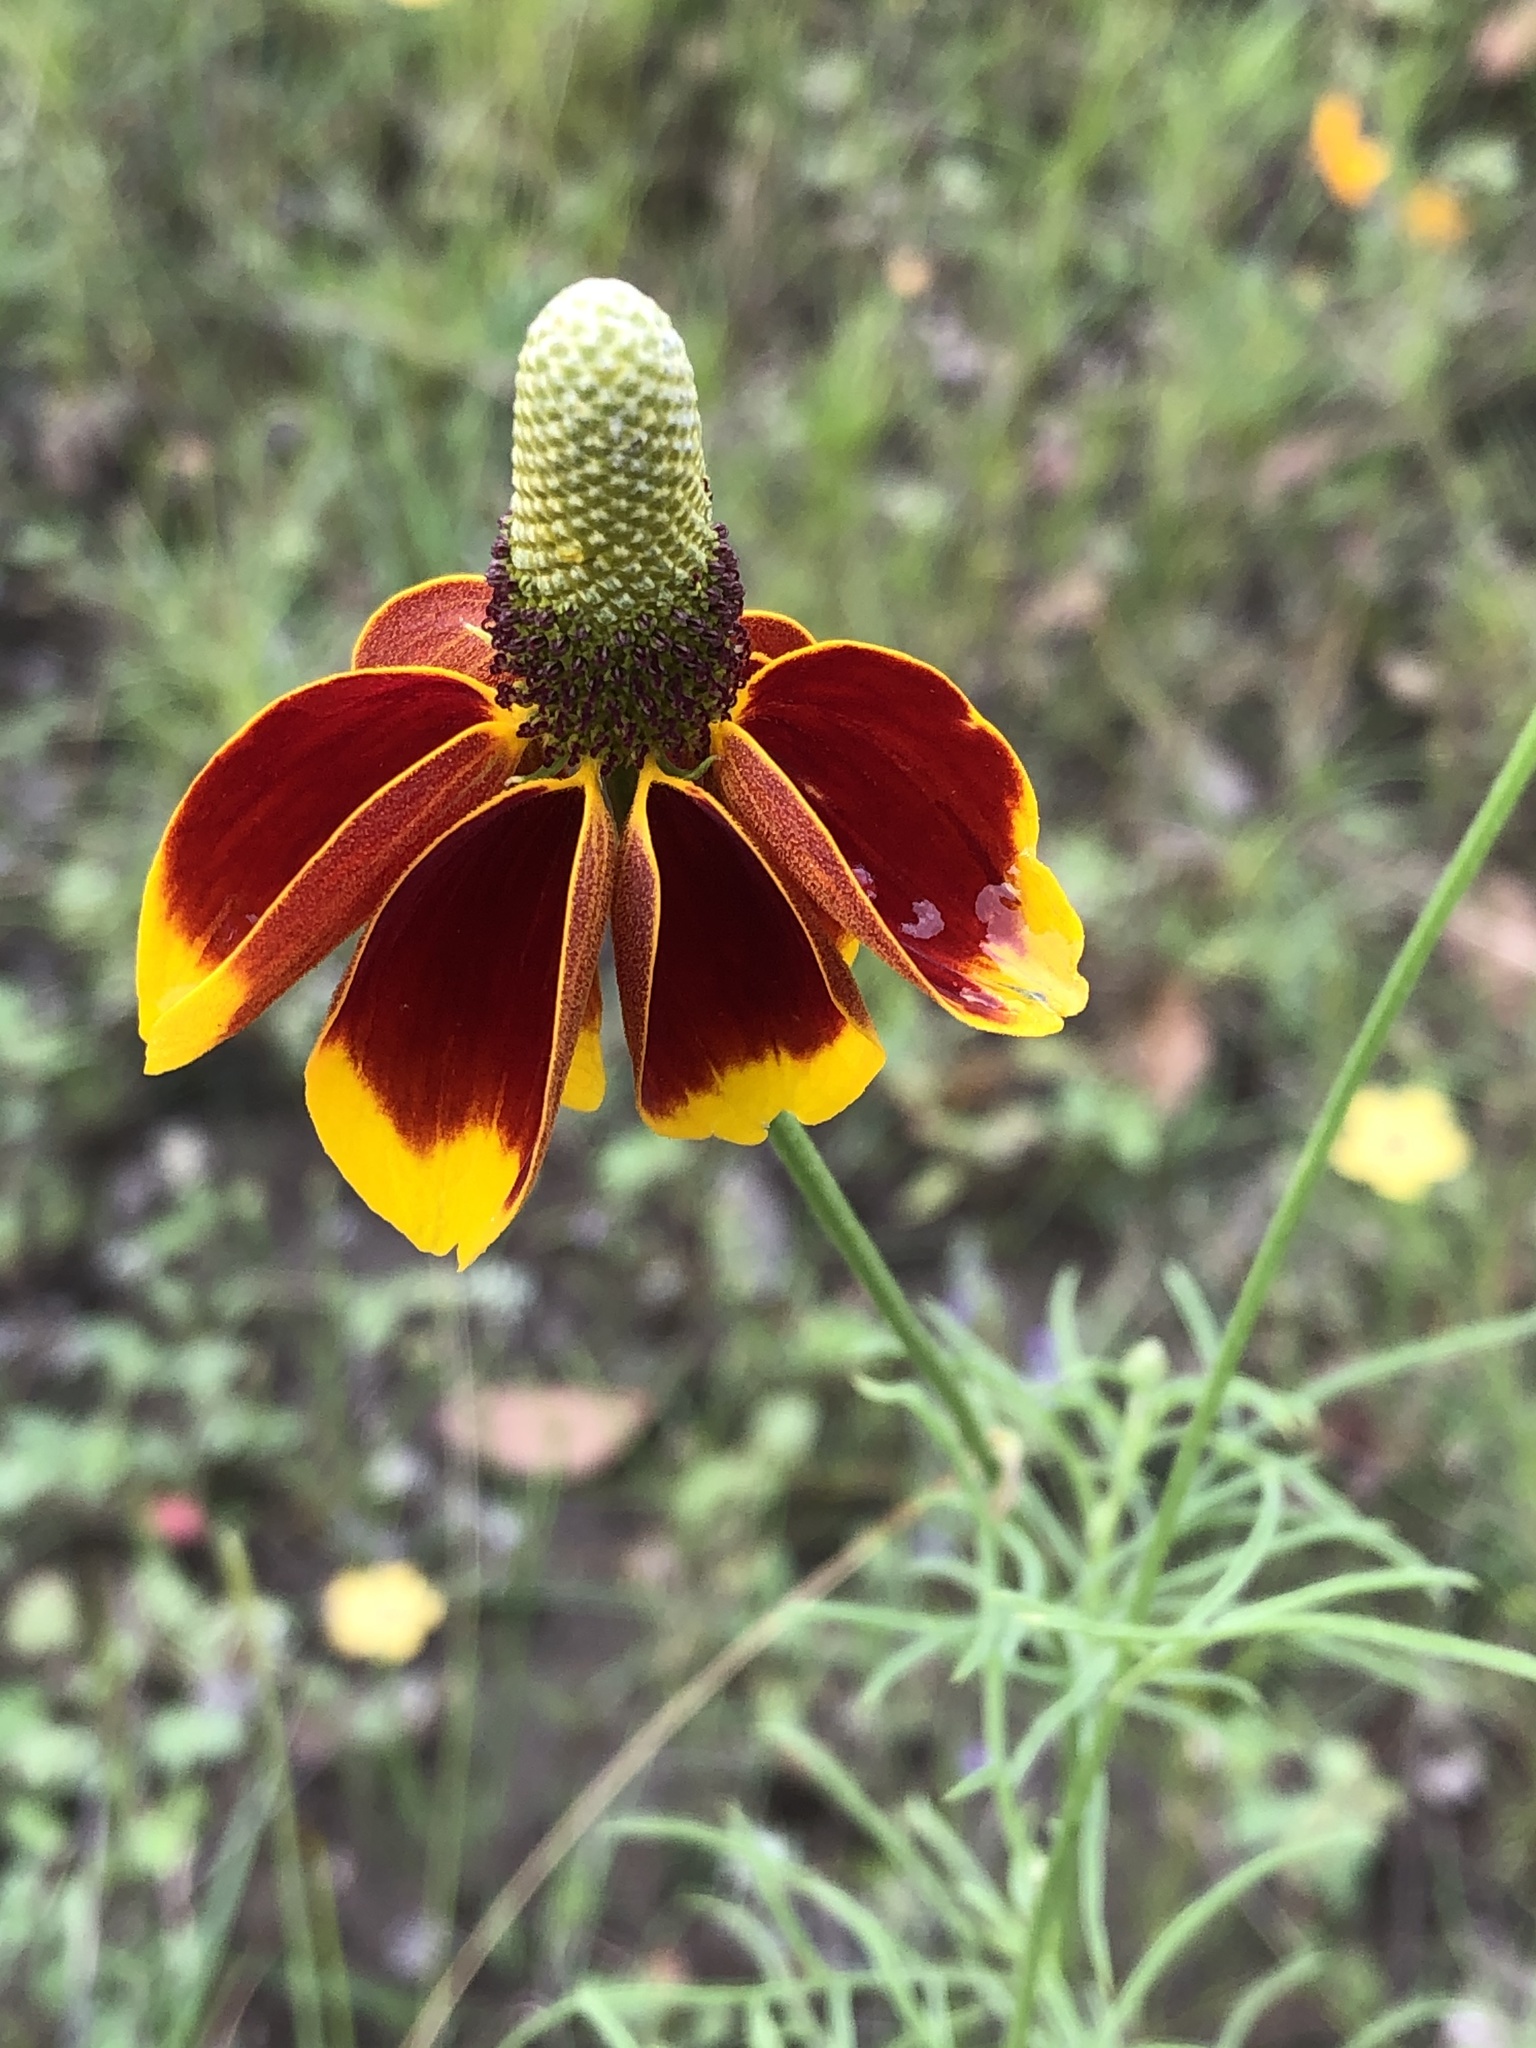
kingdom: Plantae
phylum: Tracheophyta
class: Magnoliopsida
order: Asterales
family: Asteraceae
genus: Ratibida
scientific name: Ratibida columnifera
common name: Prairie coneflower
